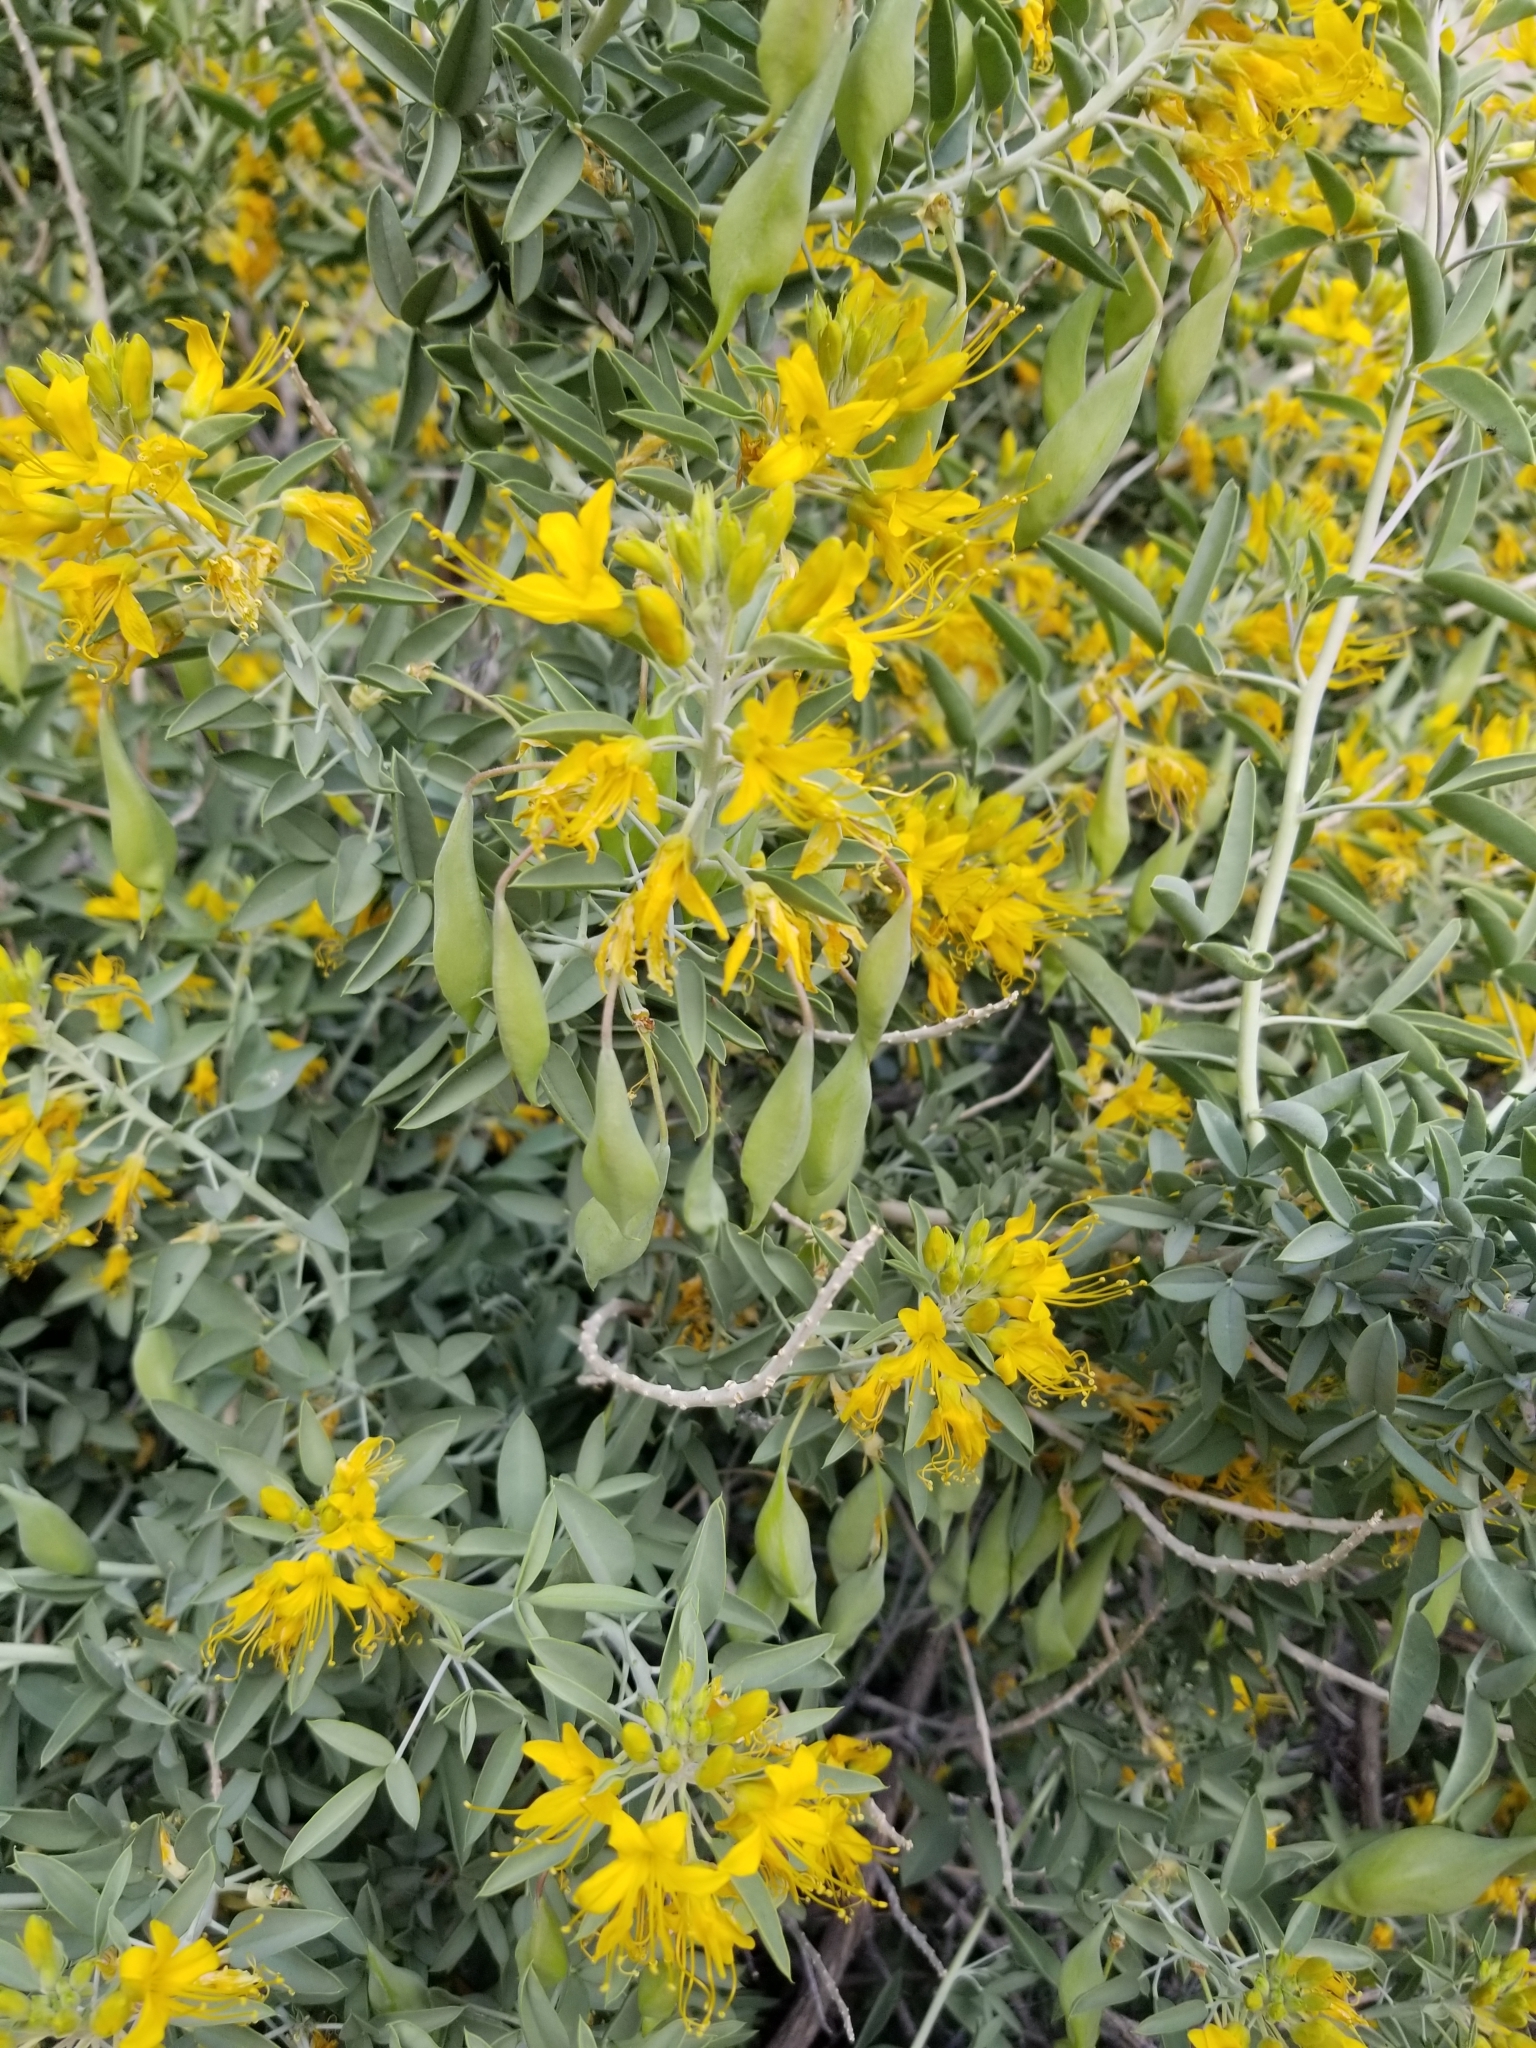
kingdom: Plantae
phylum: Tracheophyta
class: Magnoliopsida
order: Brassicales
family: Cleomaceae
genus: Cleomella
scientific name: Cleomella arborea
